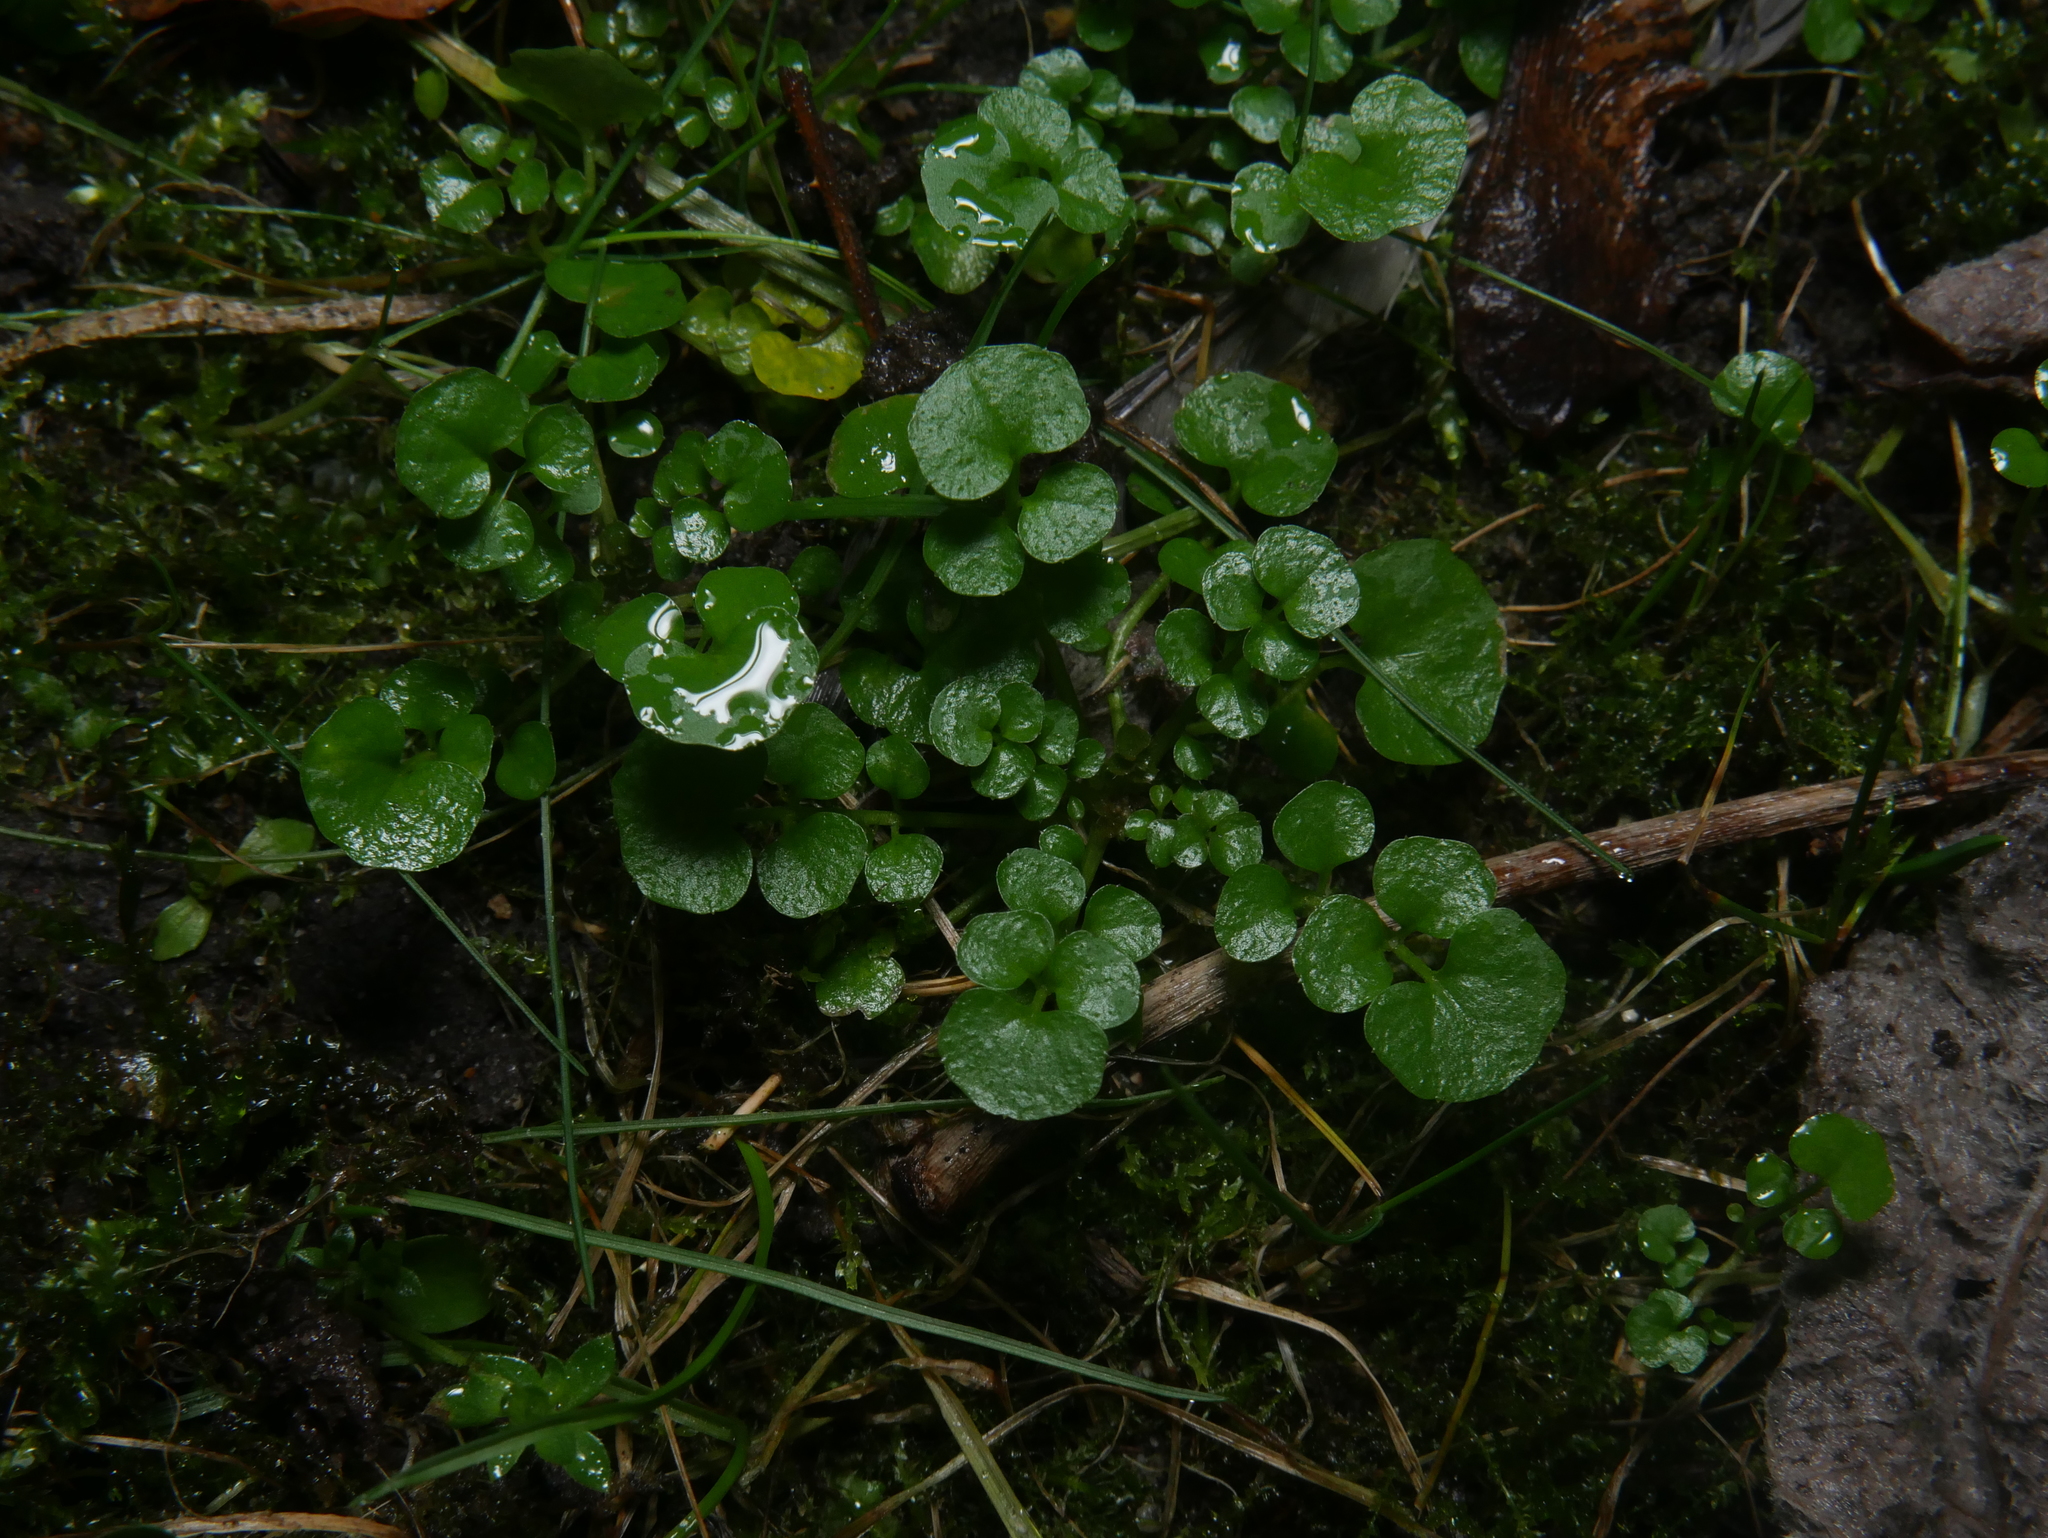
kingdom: Plantae
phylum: Tracheophyta
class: Magnoliopsida
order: Brassicales
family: Brassicaceae
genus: Cardamine
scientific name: Cardamine hirsuta
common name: Hairy bittercress
